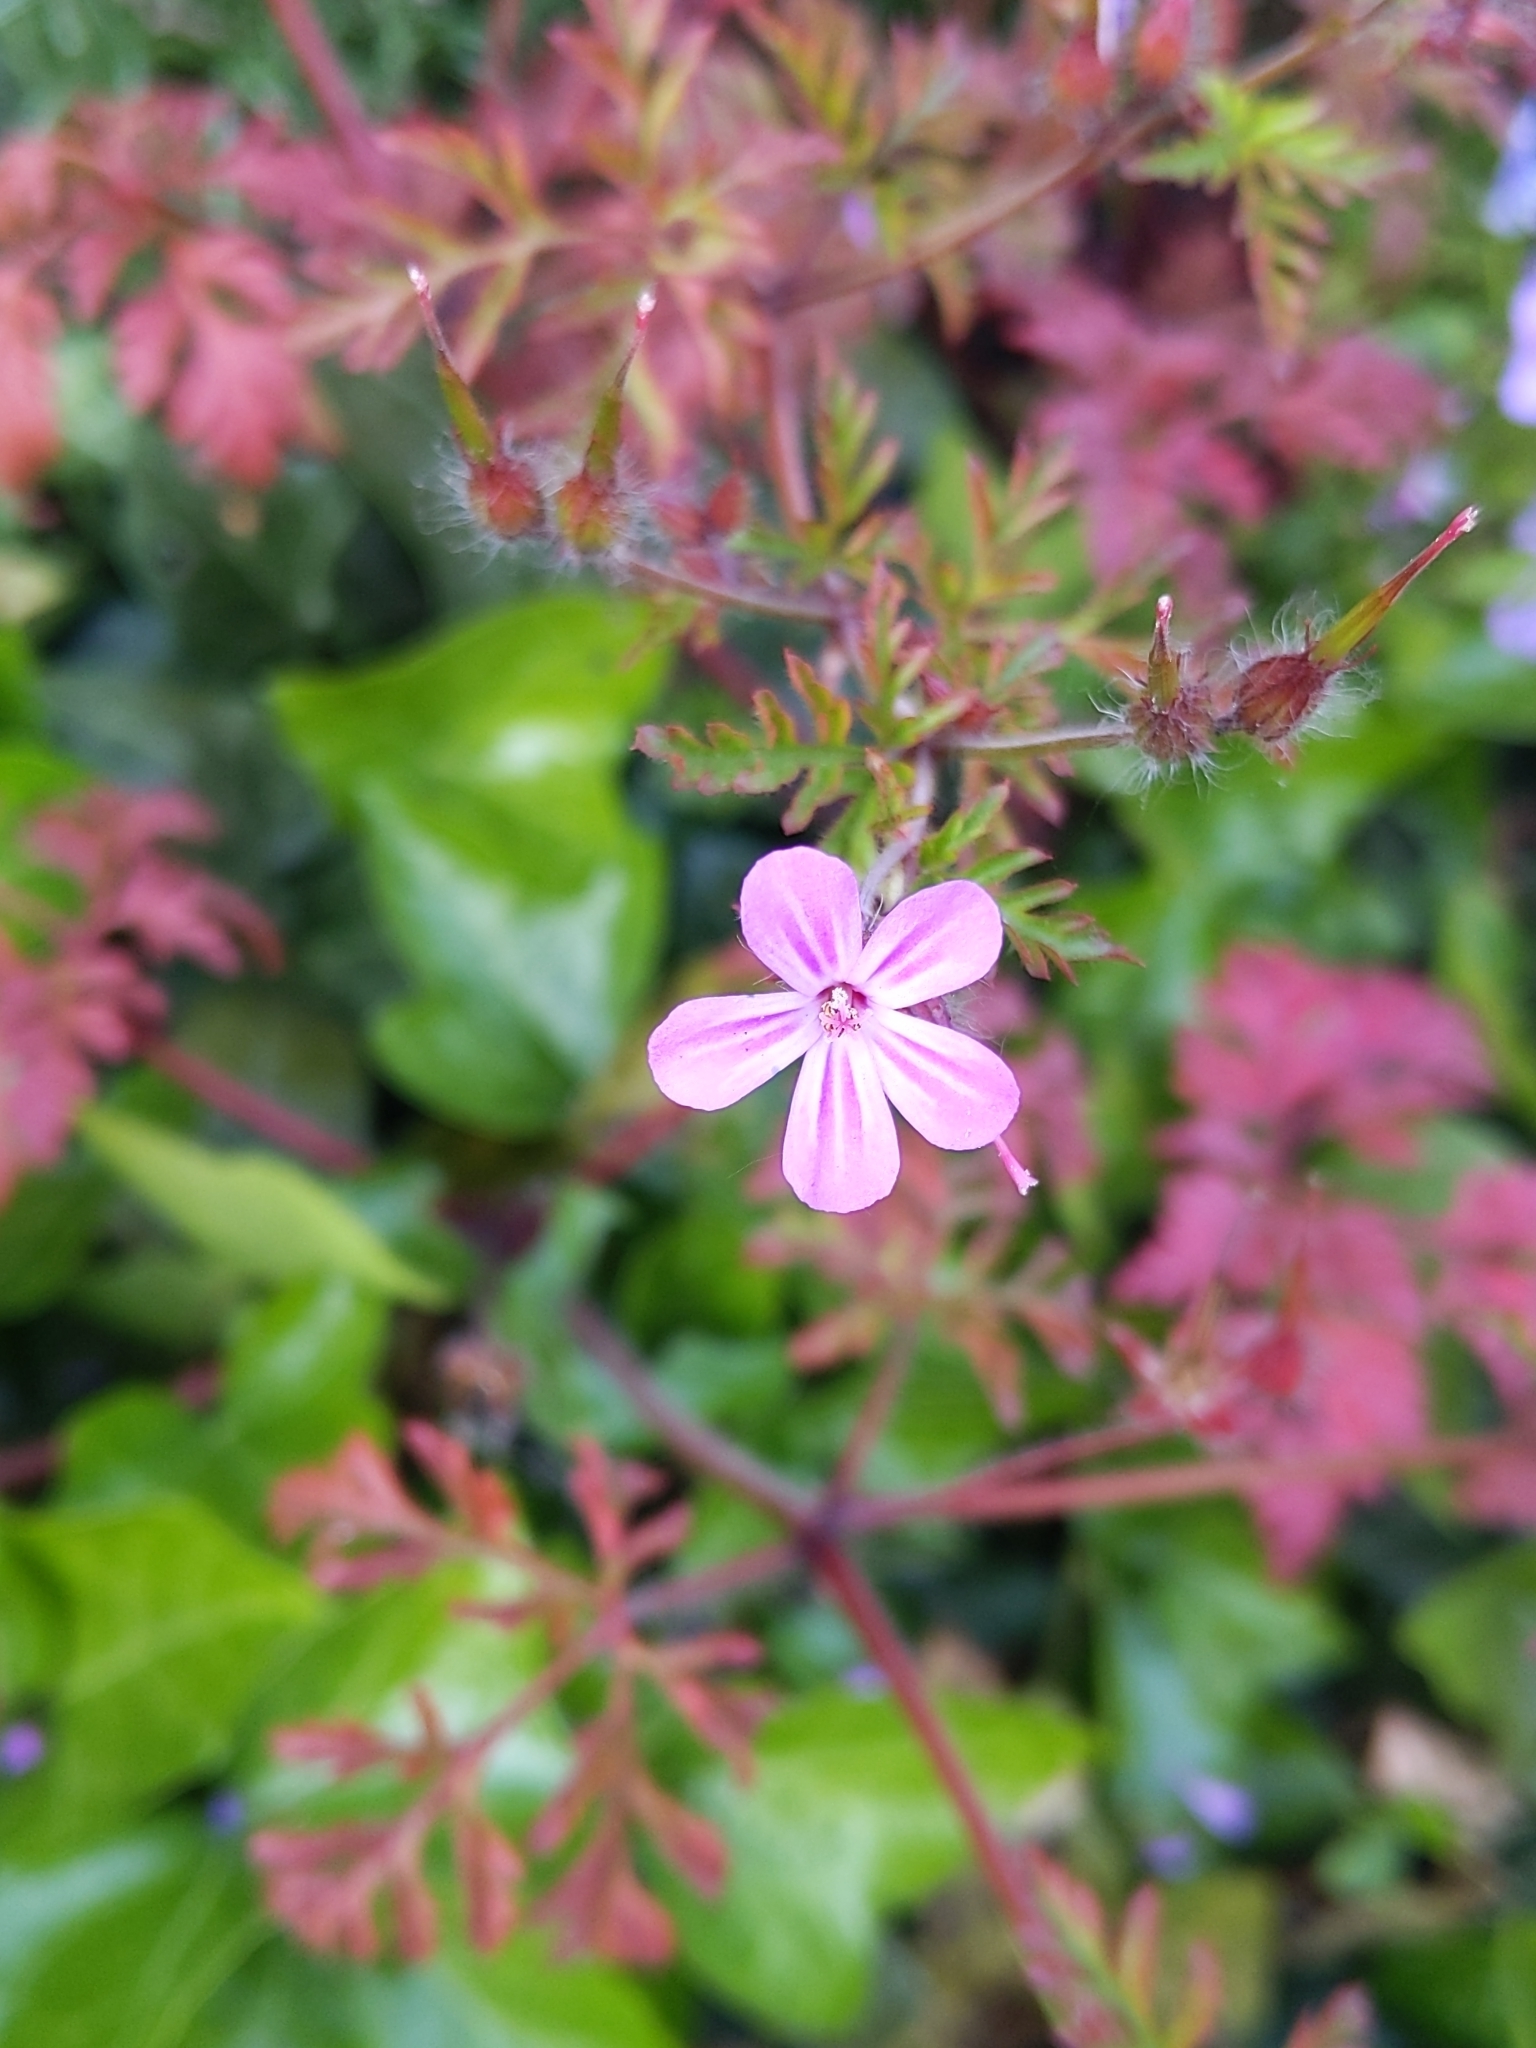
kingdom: Plantae
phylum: Tracheophyta
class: Magnoliopsida
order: Geraniales
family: Geraniaceae
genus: Geranium
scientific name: Geranium robertianum
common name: Herb-robert
